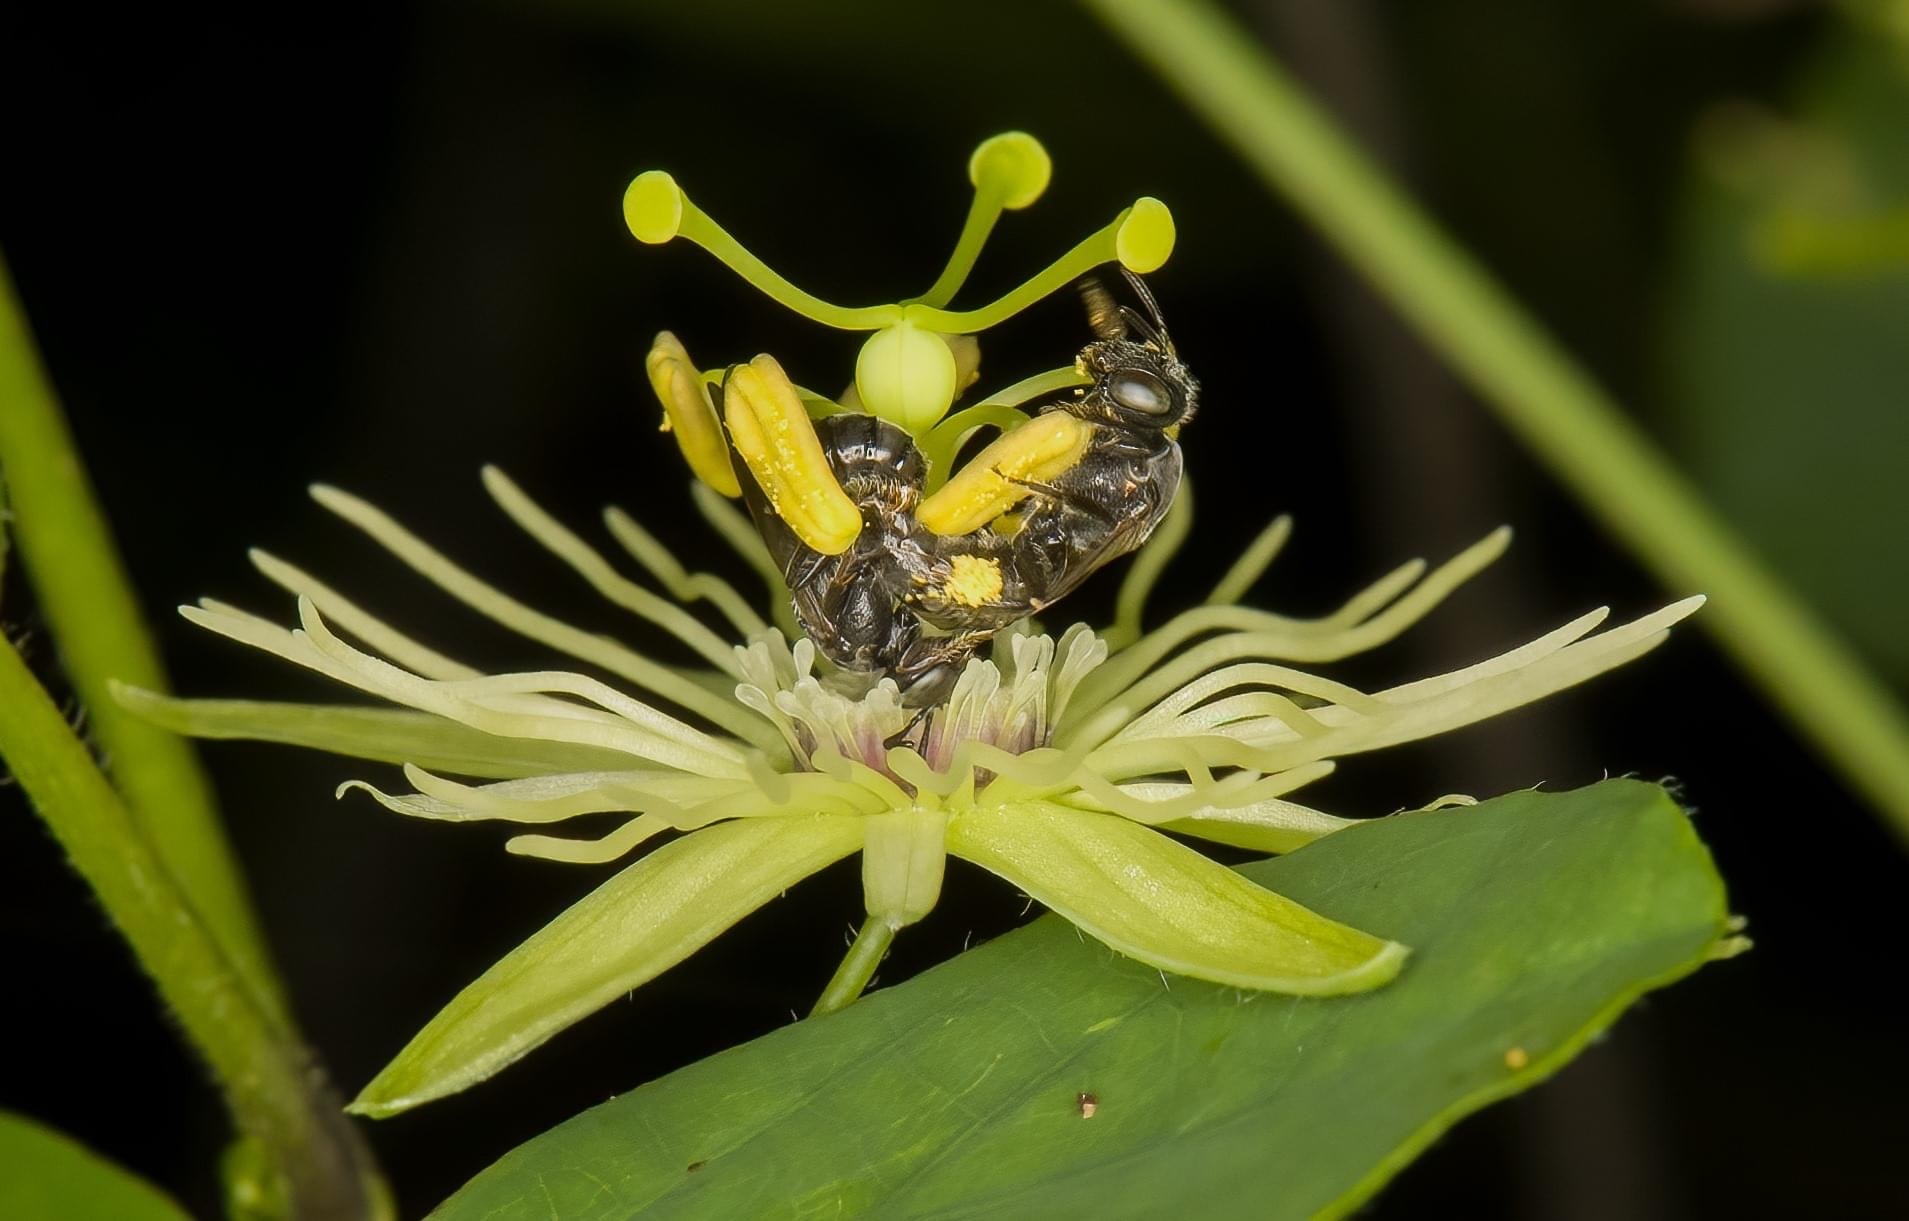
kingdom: Animalia
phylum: Arthropoda
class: Insecta
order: Hymenoptera
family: Andrenidae
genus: Protandrena
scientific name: Protandrena
